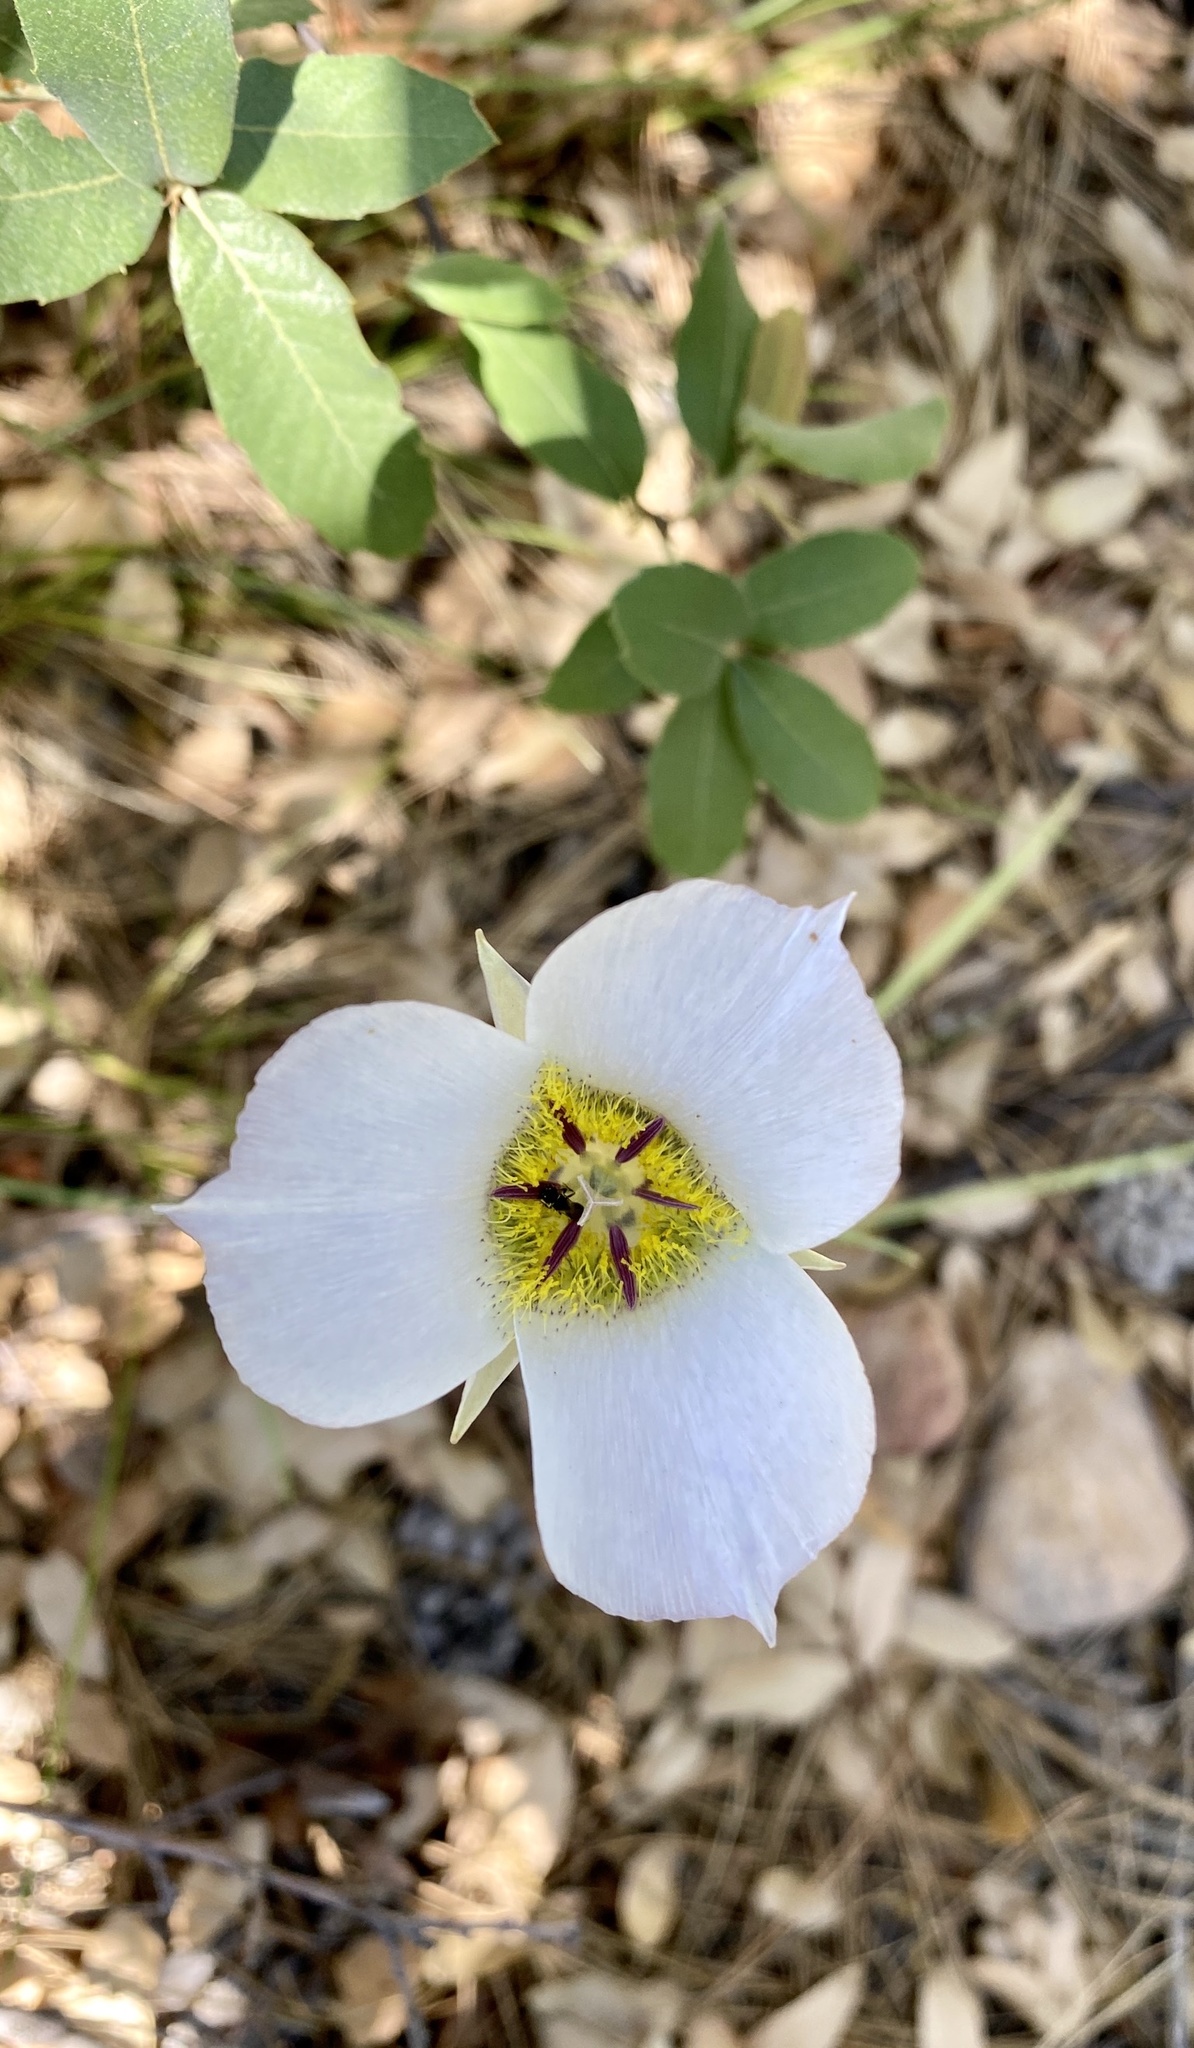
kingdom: Plantae
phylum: Tracheophyta
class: Liliopsida
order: Liliales
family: Liliaceae
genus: Calochortus
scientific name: Calochortus ambiguus
